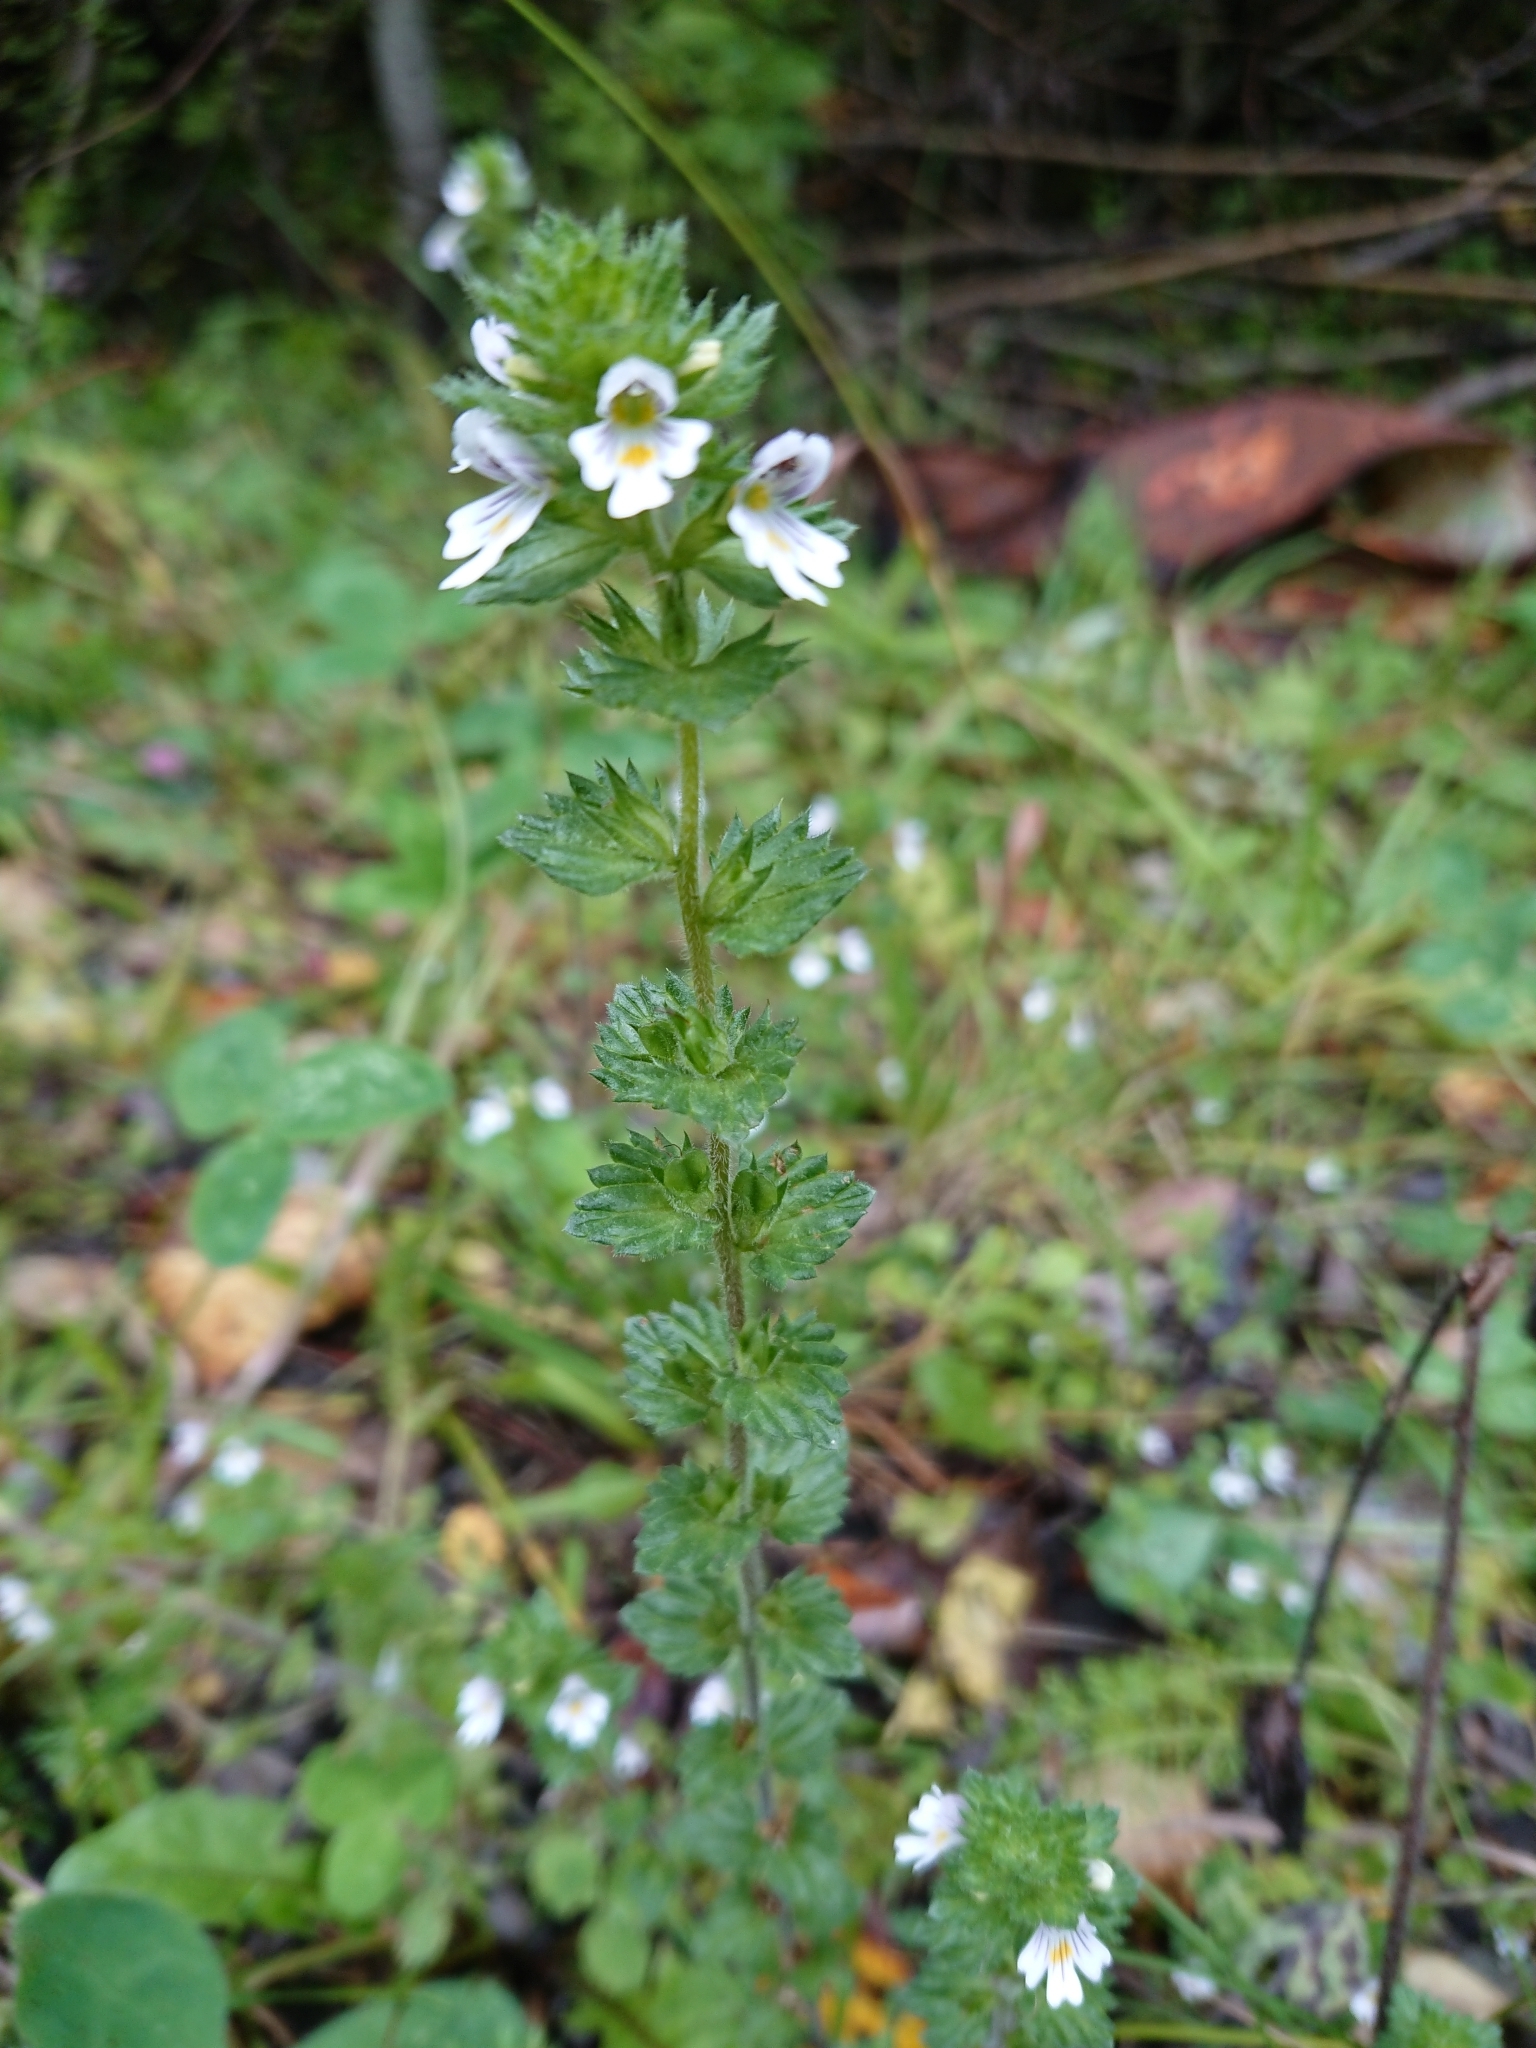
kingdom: Plantae
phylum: Tracheophyta
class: Magnoliopsida
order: Lamiales
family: Orobanchaceae
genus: Euphrasia
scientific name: Euphrasia
